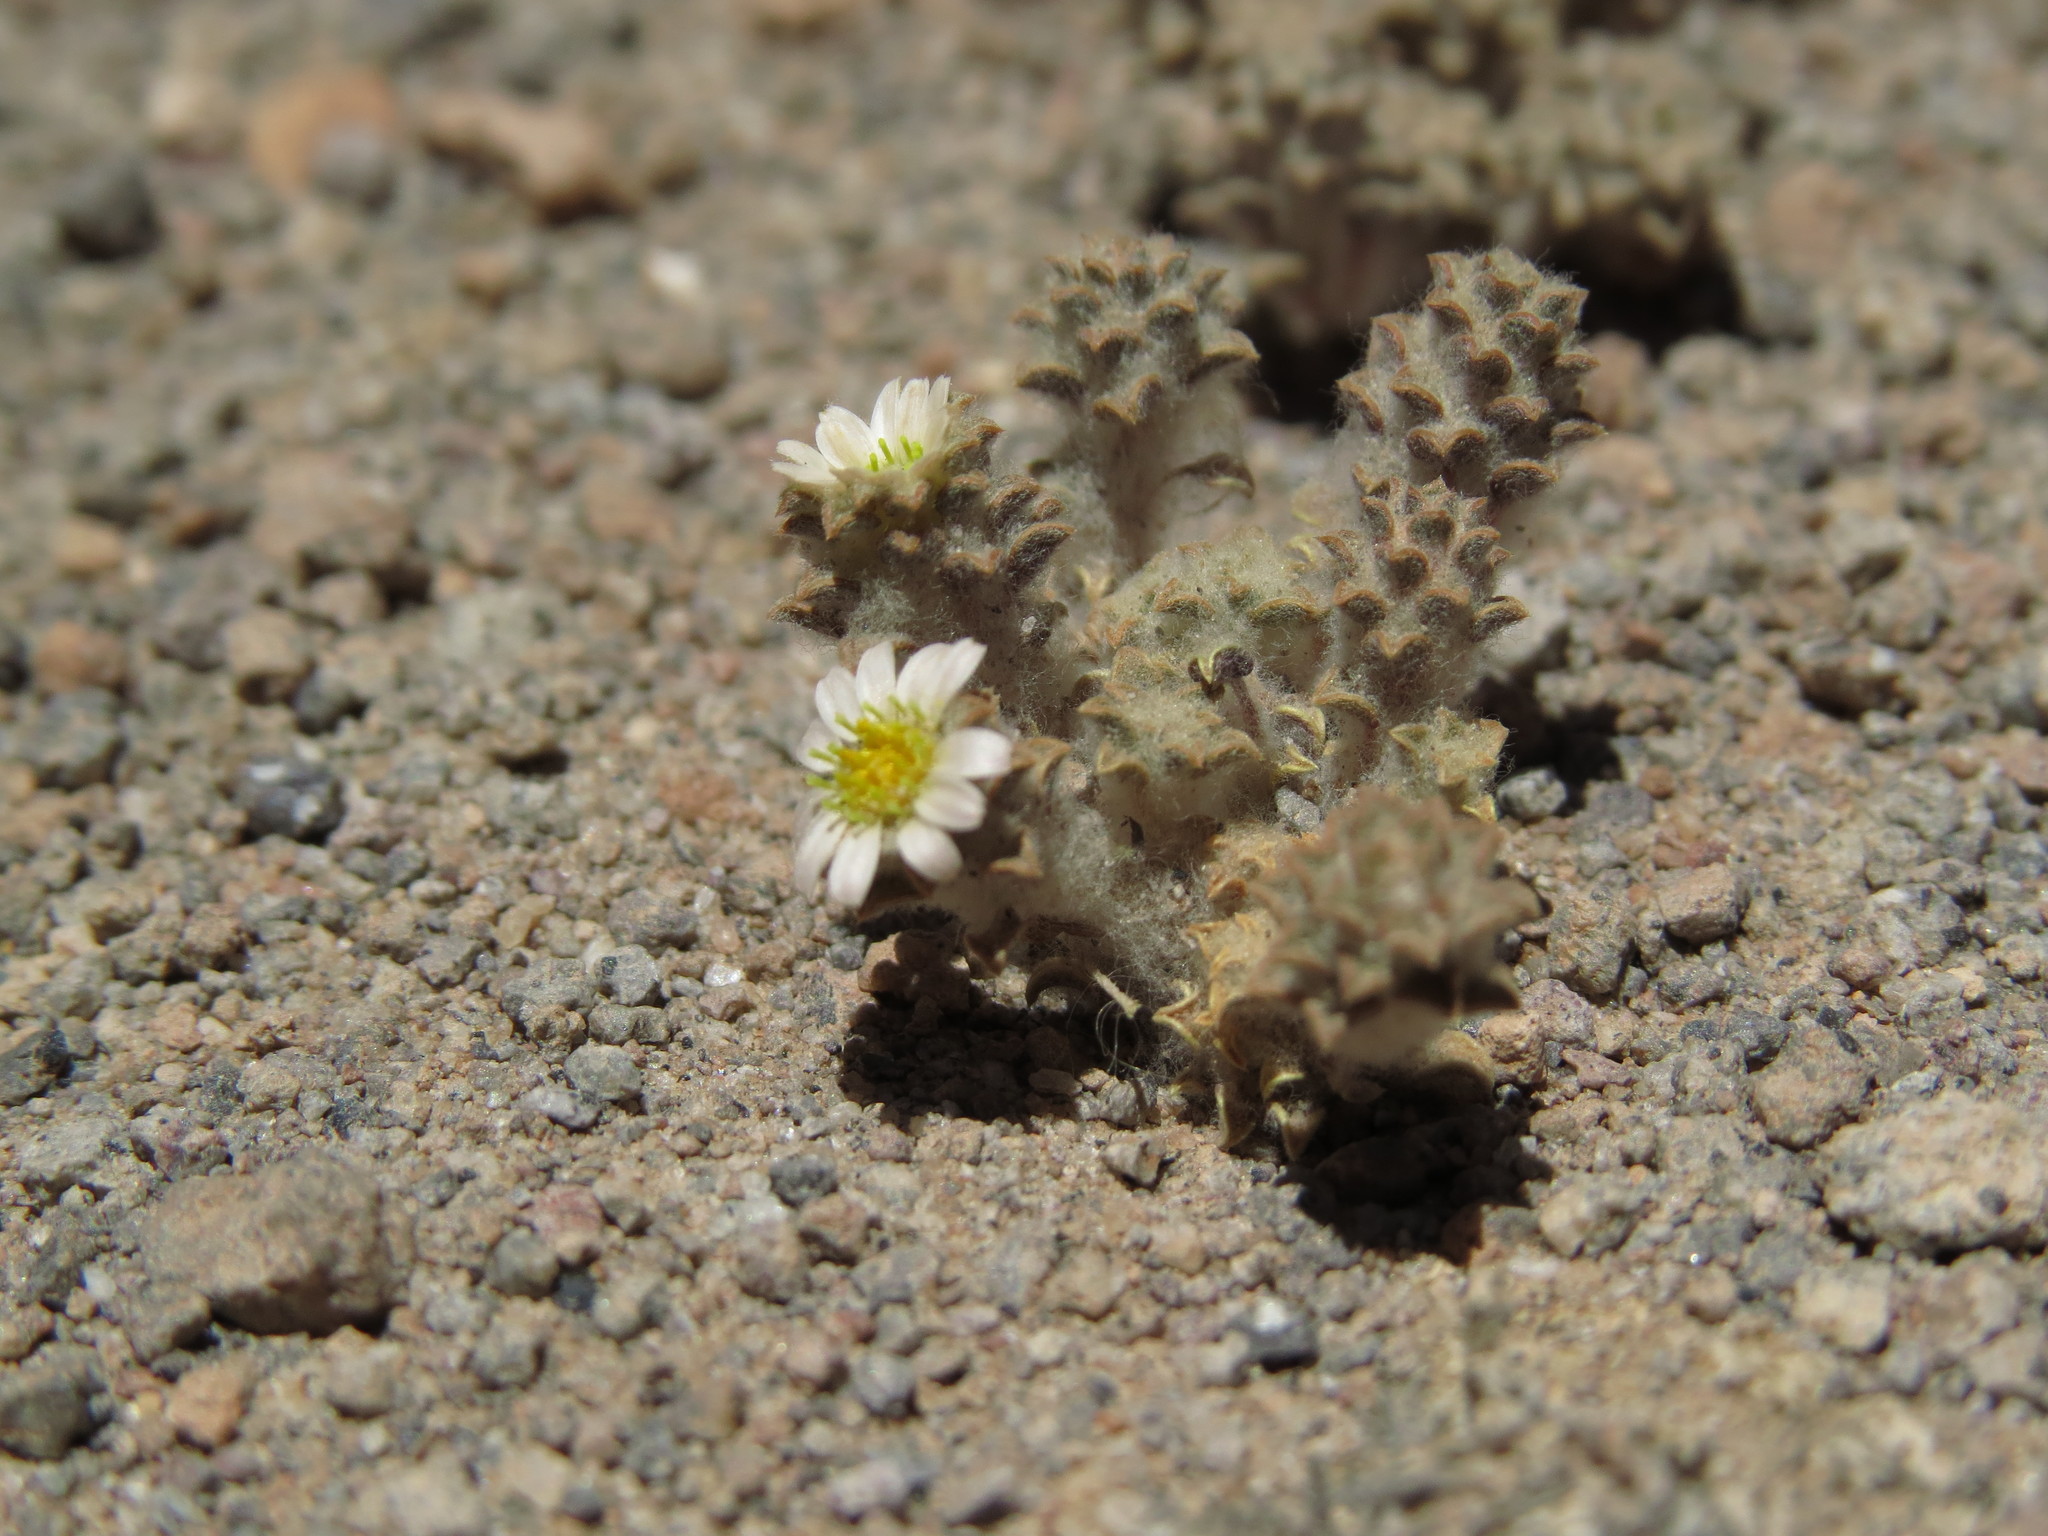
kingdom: Plantae
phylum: Tracheophyta
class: Magnoliopsida
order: Asterales
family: Asteraceae
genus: Oriastrum
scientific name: Oriastrum gnaphalioides
